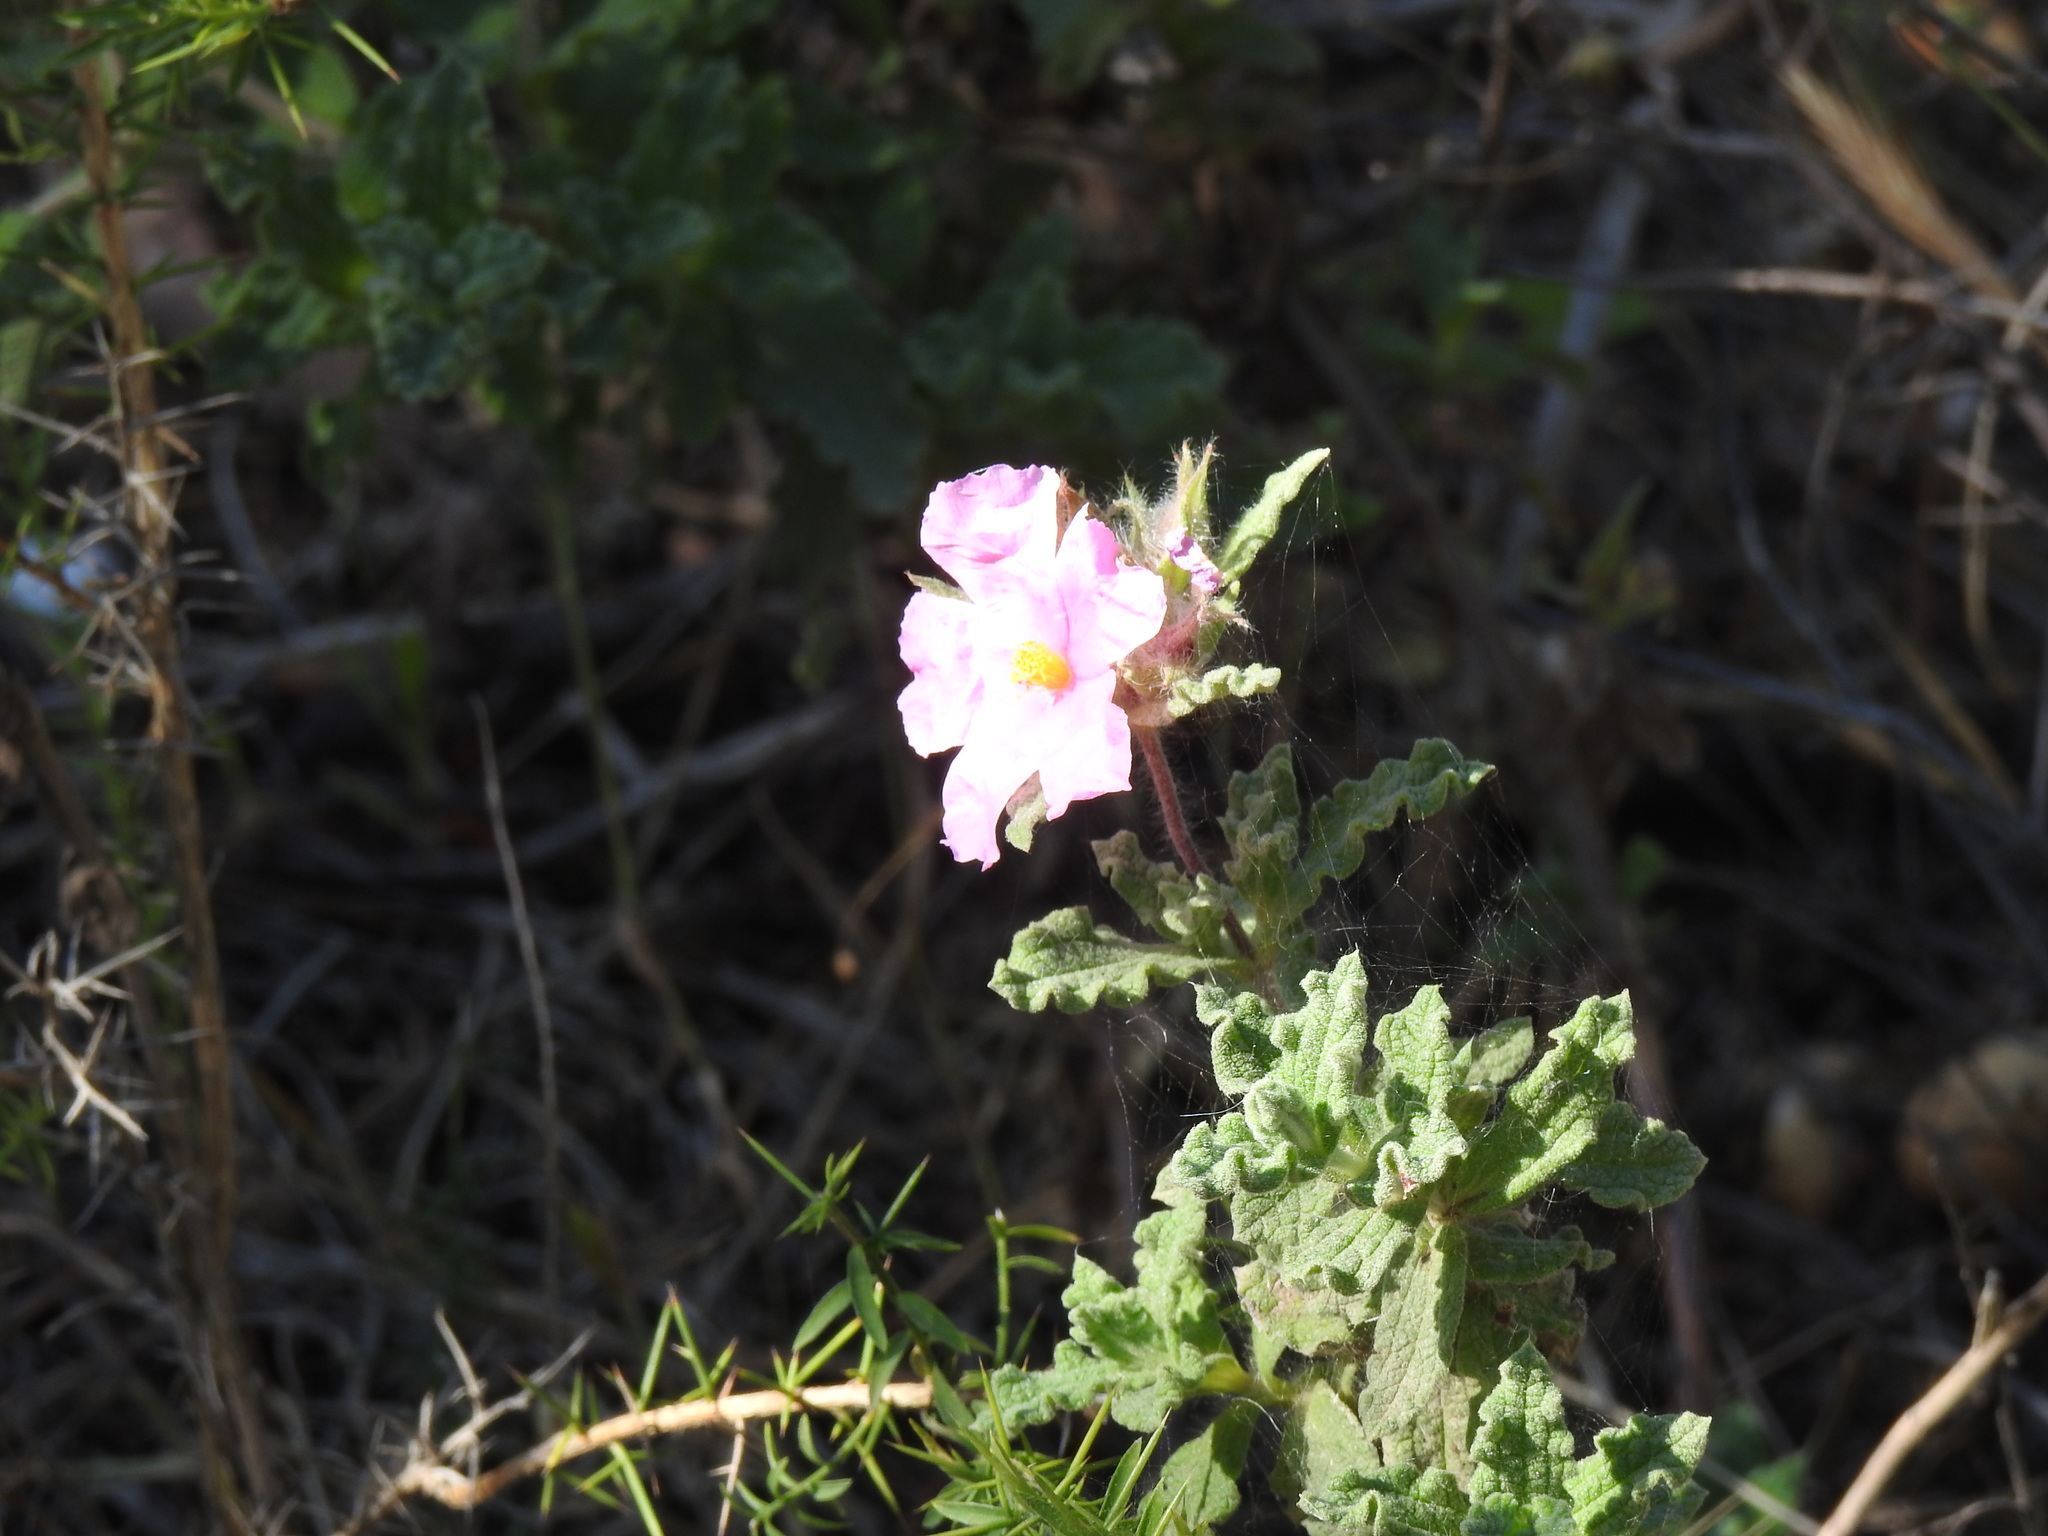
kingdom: Plantae
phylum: Tracheophyta
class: Magnoliopsida
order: Malvales
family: Cistaceae
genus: Cistus
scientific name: Cistus crispus
